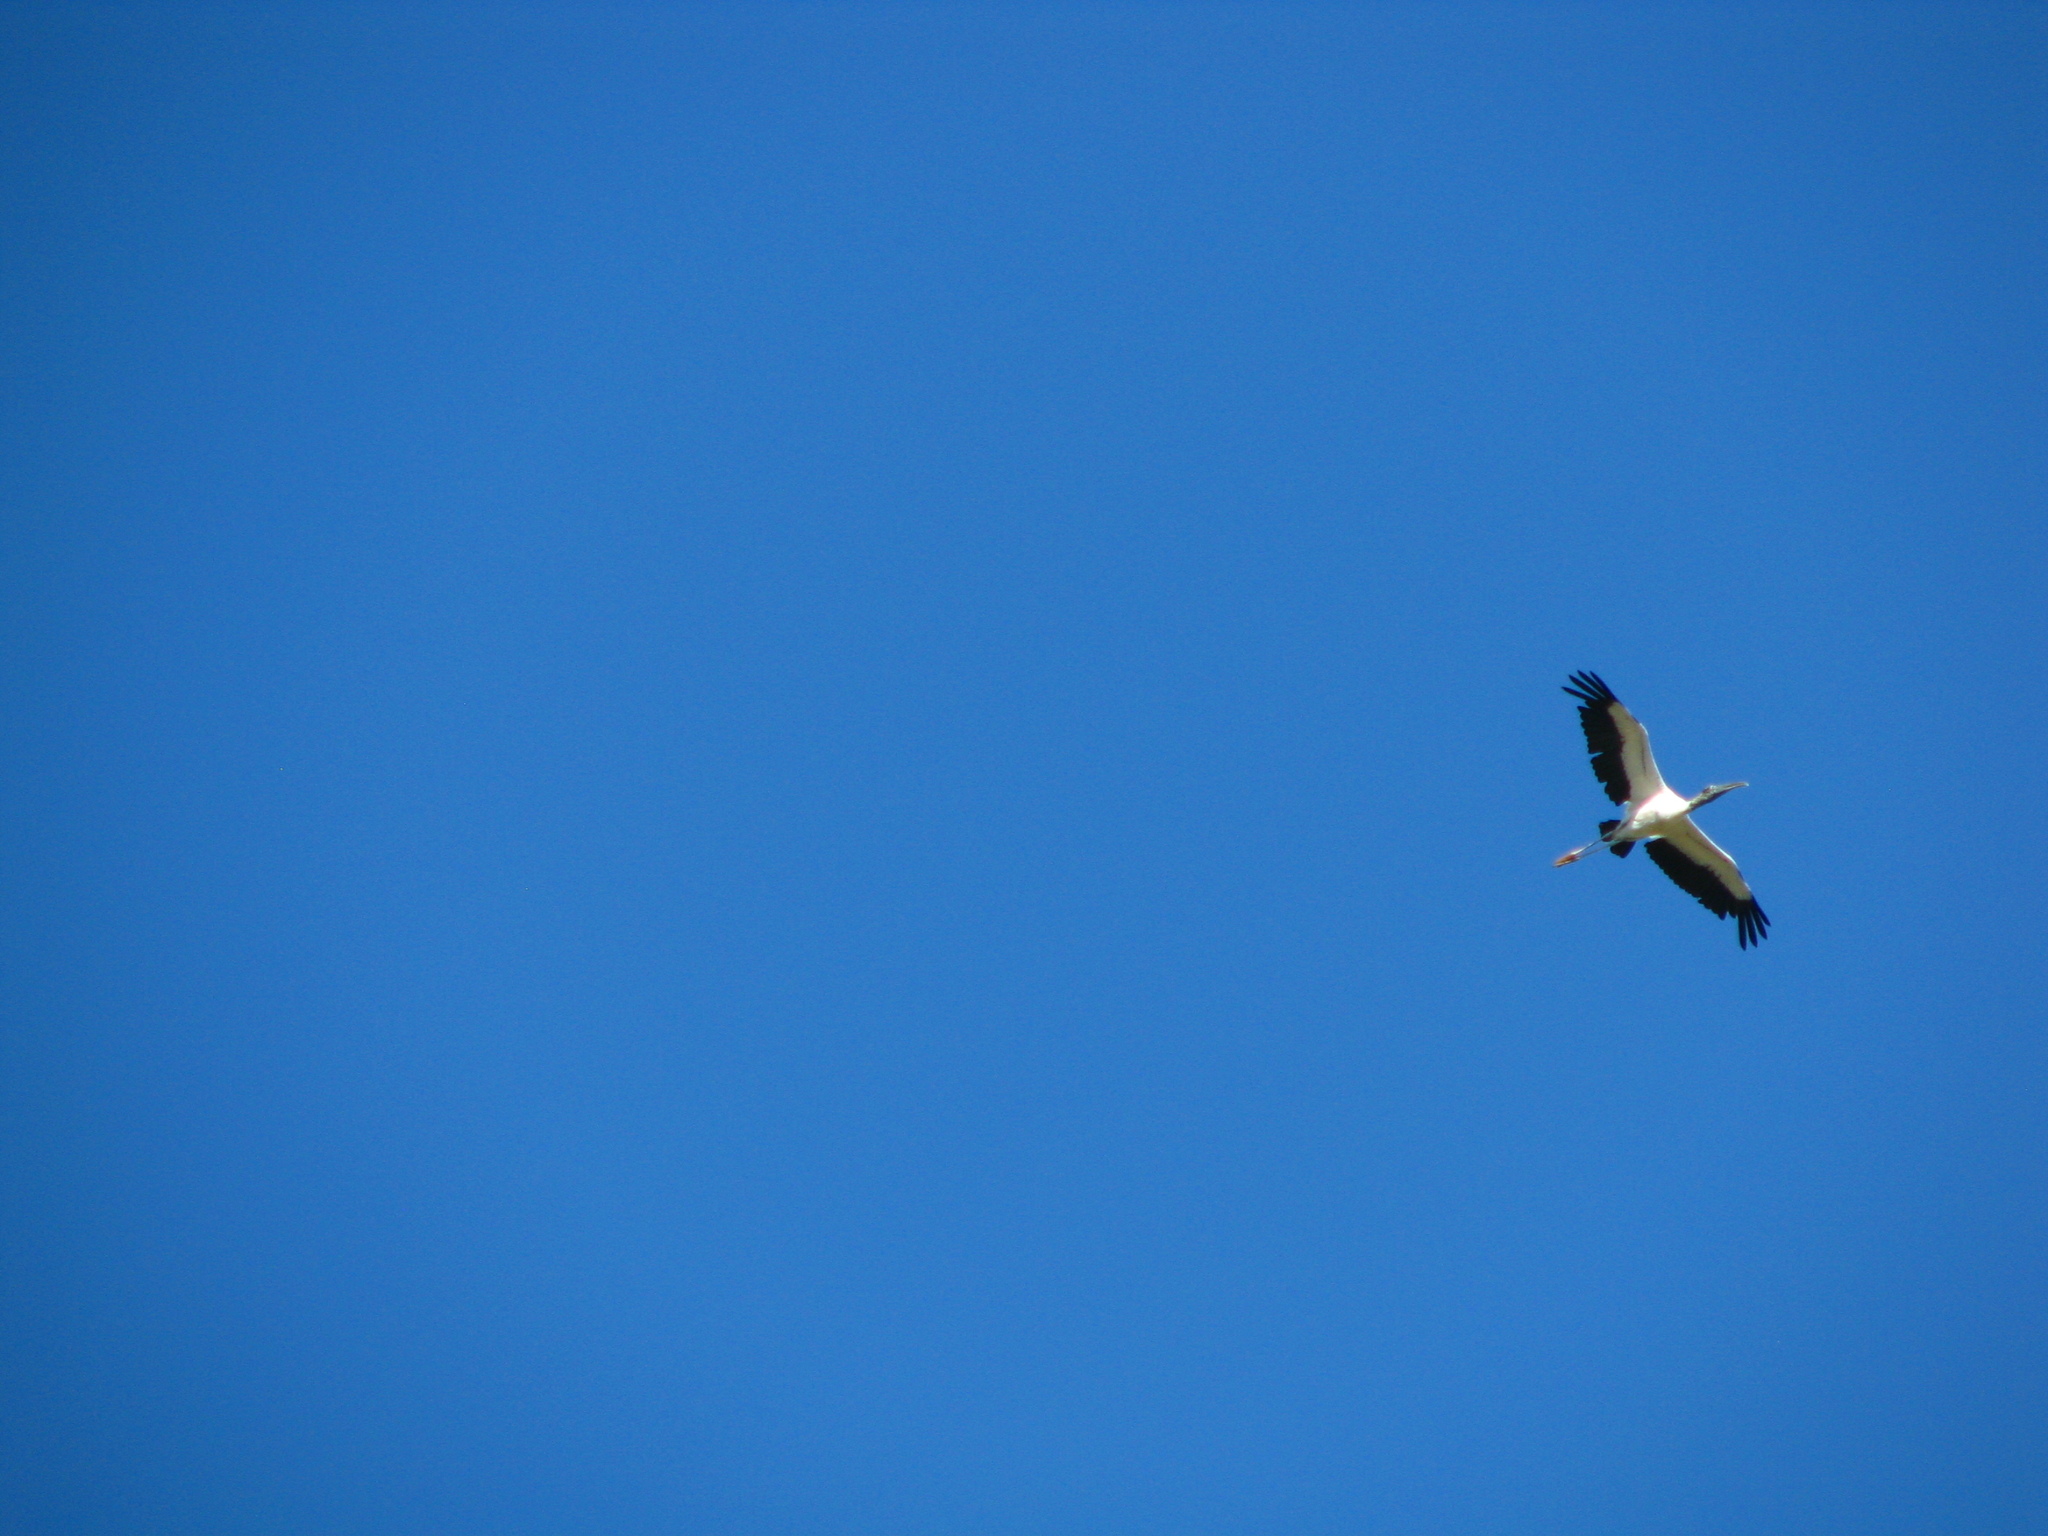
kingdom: Animalia
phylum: Chordata
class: Aves
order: Ciconiiformes
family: Ciconiidae
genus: Mycteria
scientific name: Mycteria americana
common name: Wood stork
